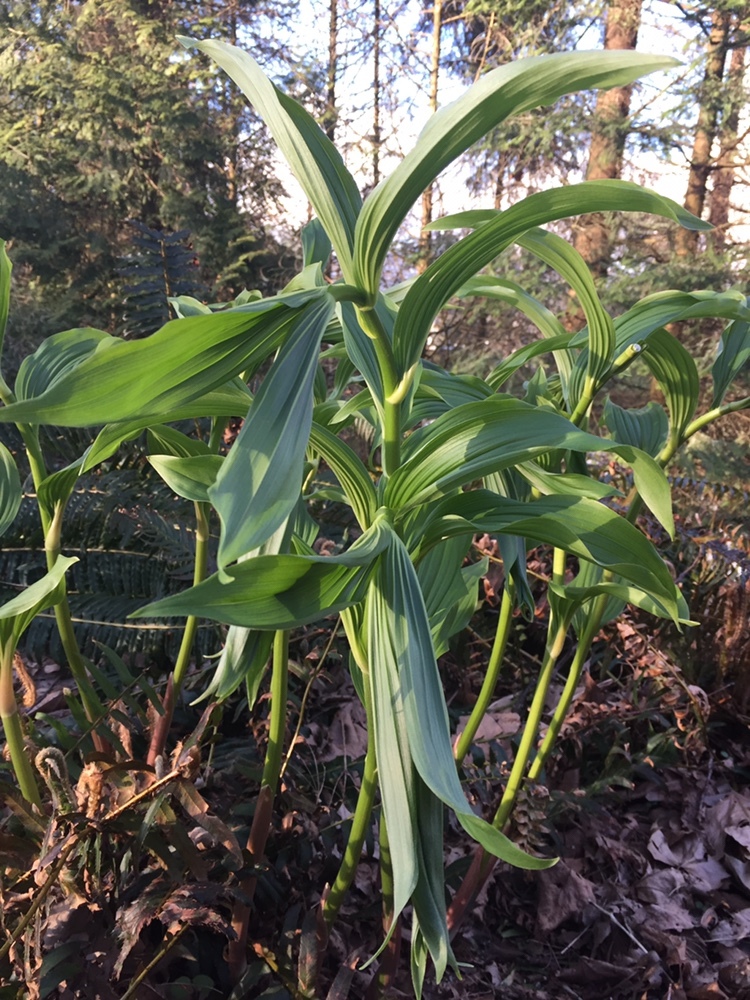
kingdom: Plantae
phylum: Tracheophyta
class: Liliopsida
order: Asparagales
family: Asparagaceae
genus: Maianthemum
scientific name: Maianthemum racemosum
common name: False spikenard
